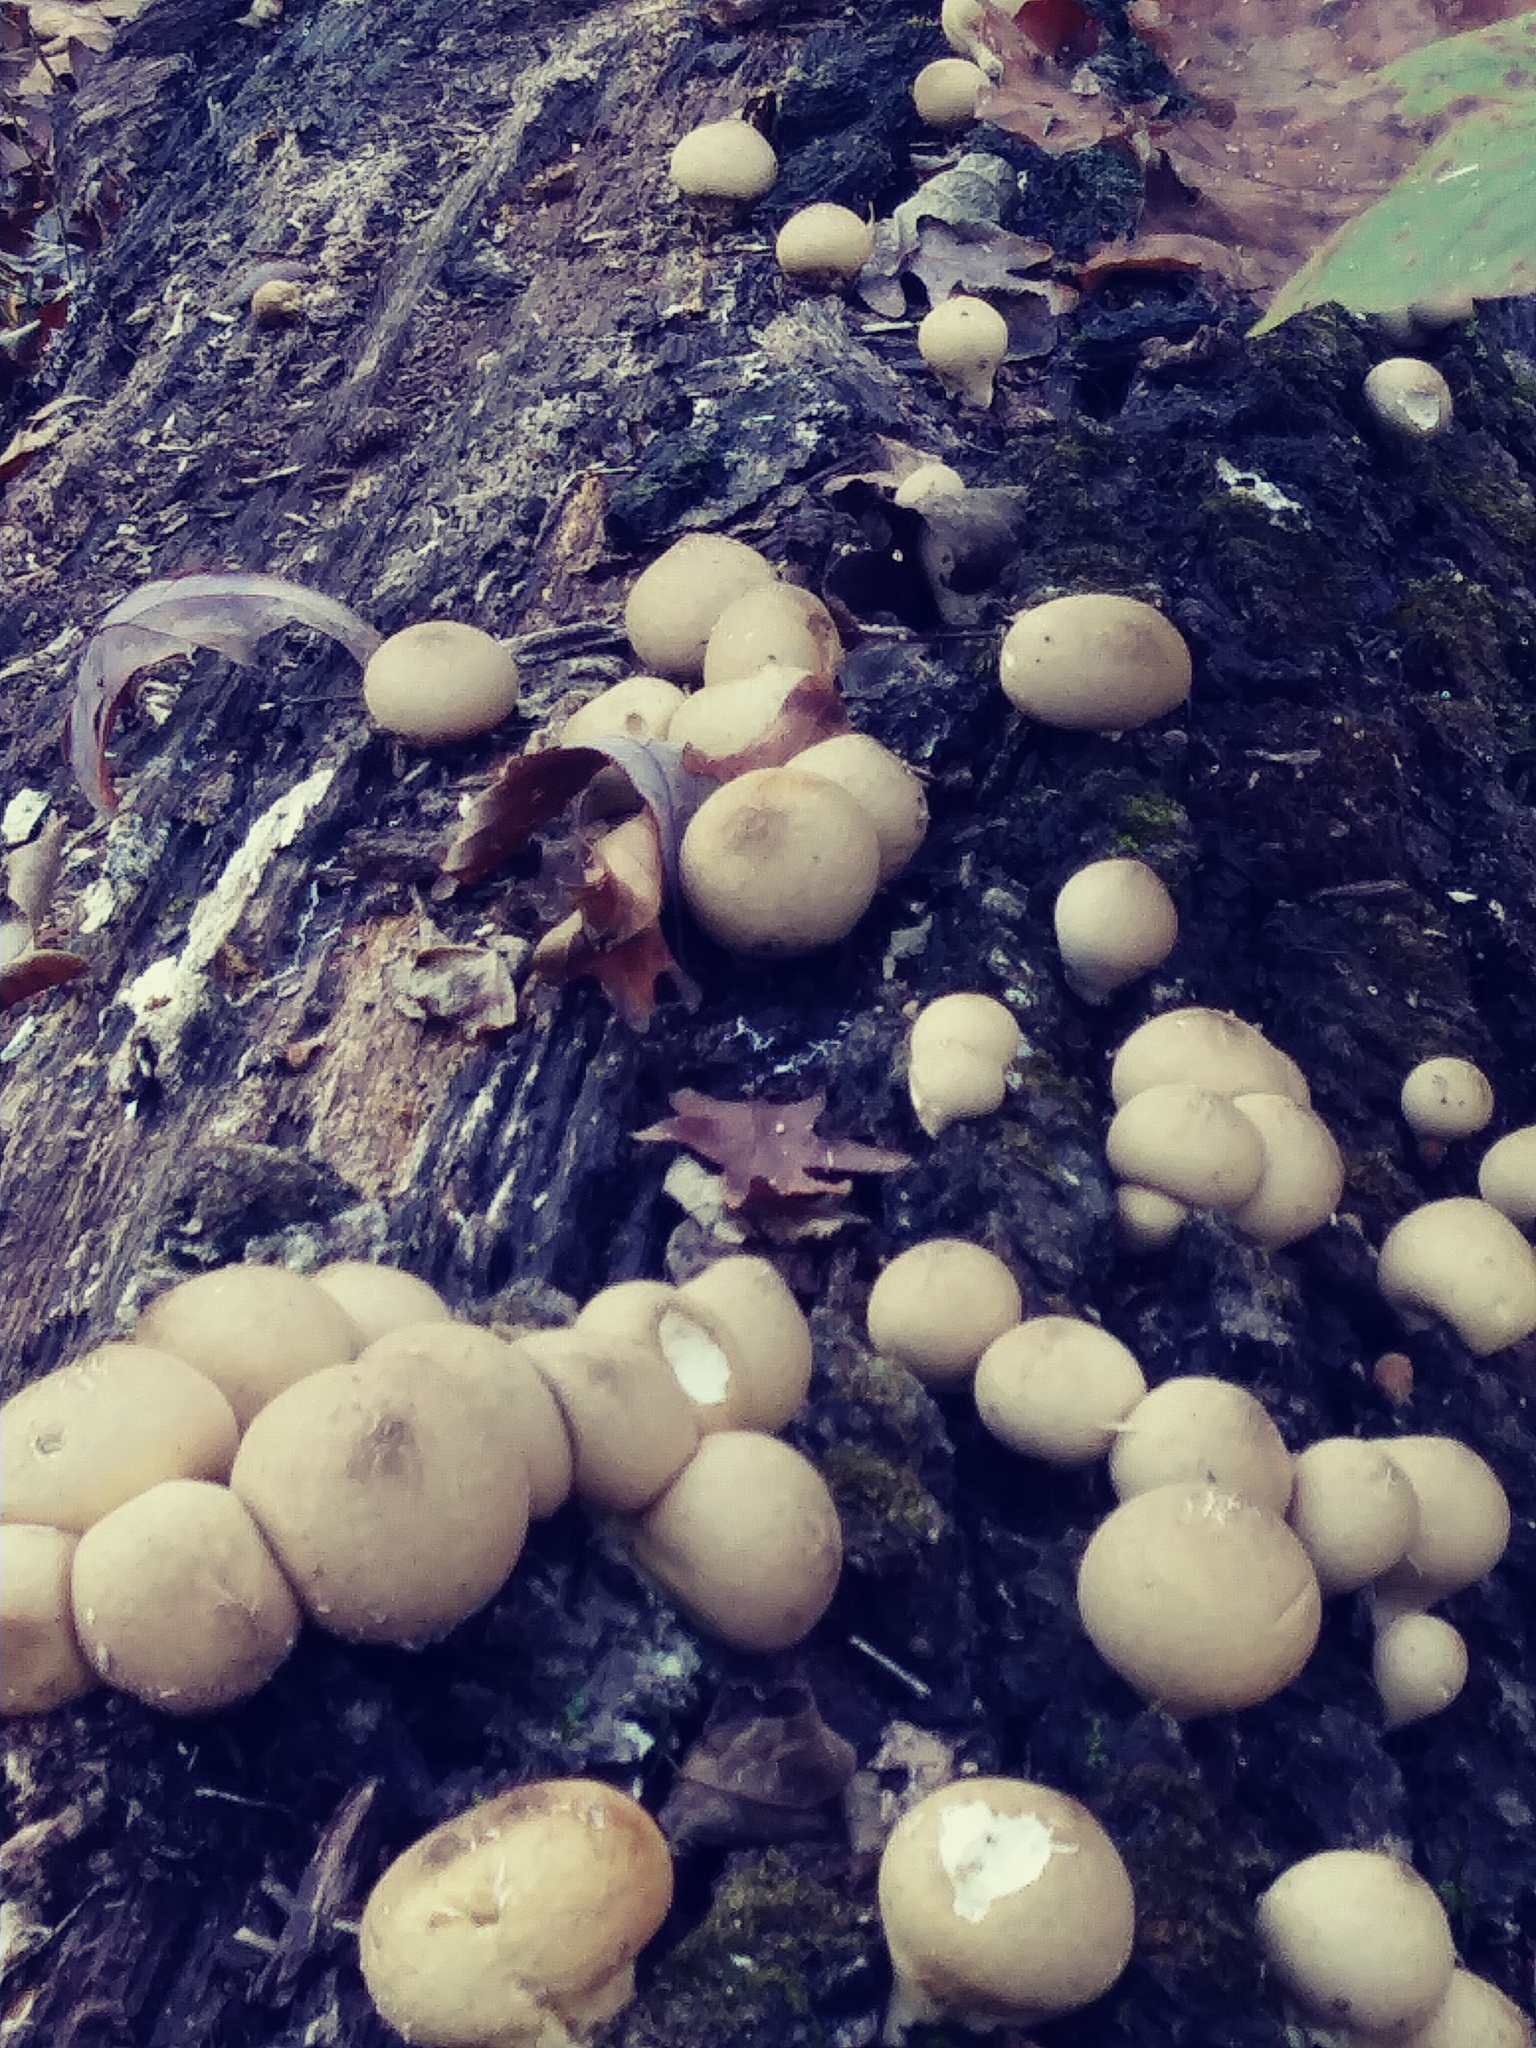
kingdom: Fungi
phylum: Basidiomycota
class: Agaricomycetes
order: Agaricales
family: Lycoperdaceae
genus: Apioperdon
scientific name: Apioperdon pyriforme
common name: Pear-shaped puffball
